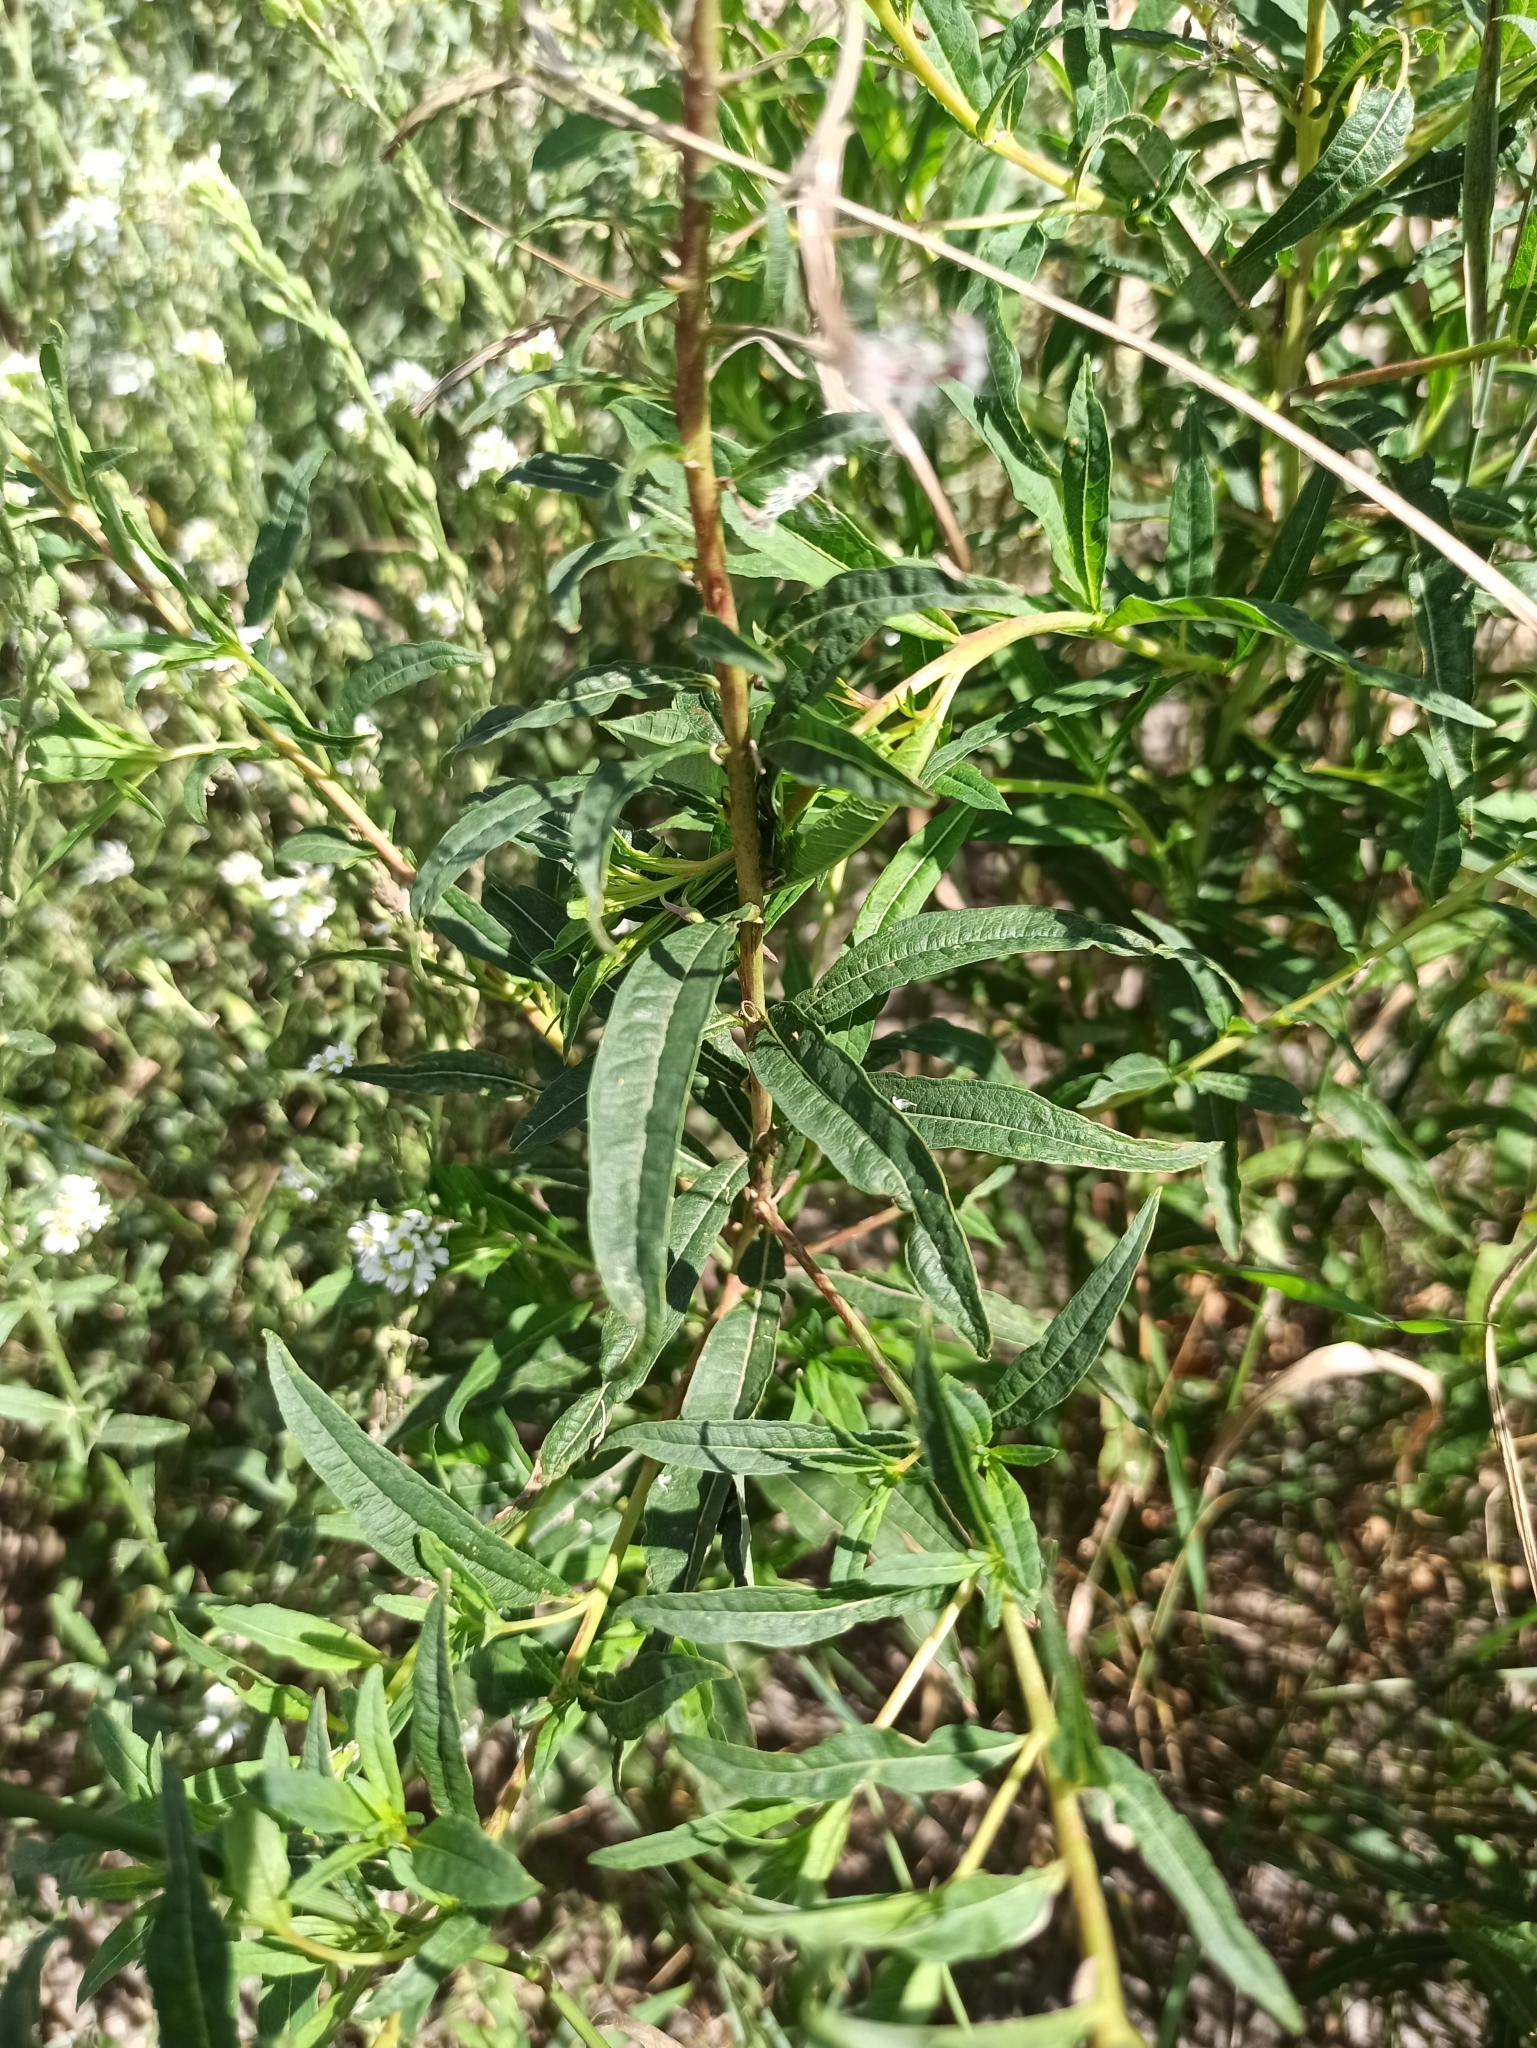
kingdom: Plantae
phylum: Tracheophyta
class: Magnoliopsida
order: Myrtales
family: Onagraceae
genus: Chamaenerion
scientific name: Chamaenerion angustifolium
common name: Fireweed
